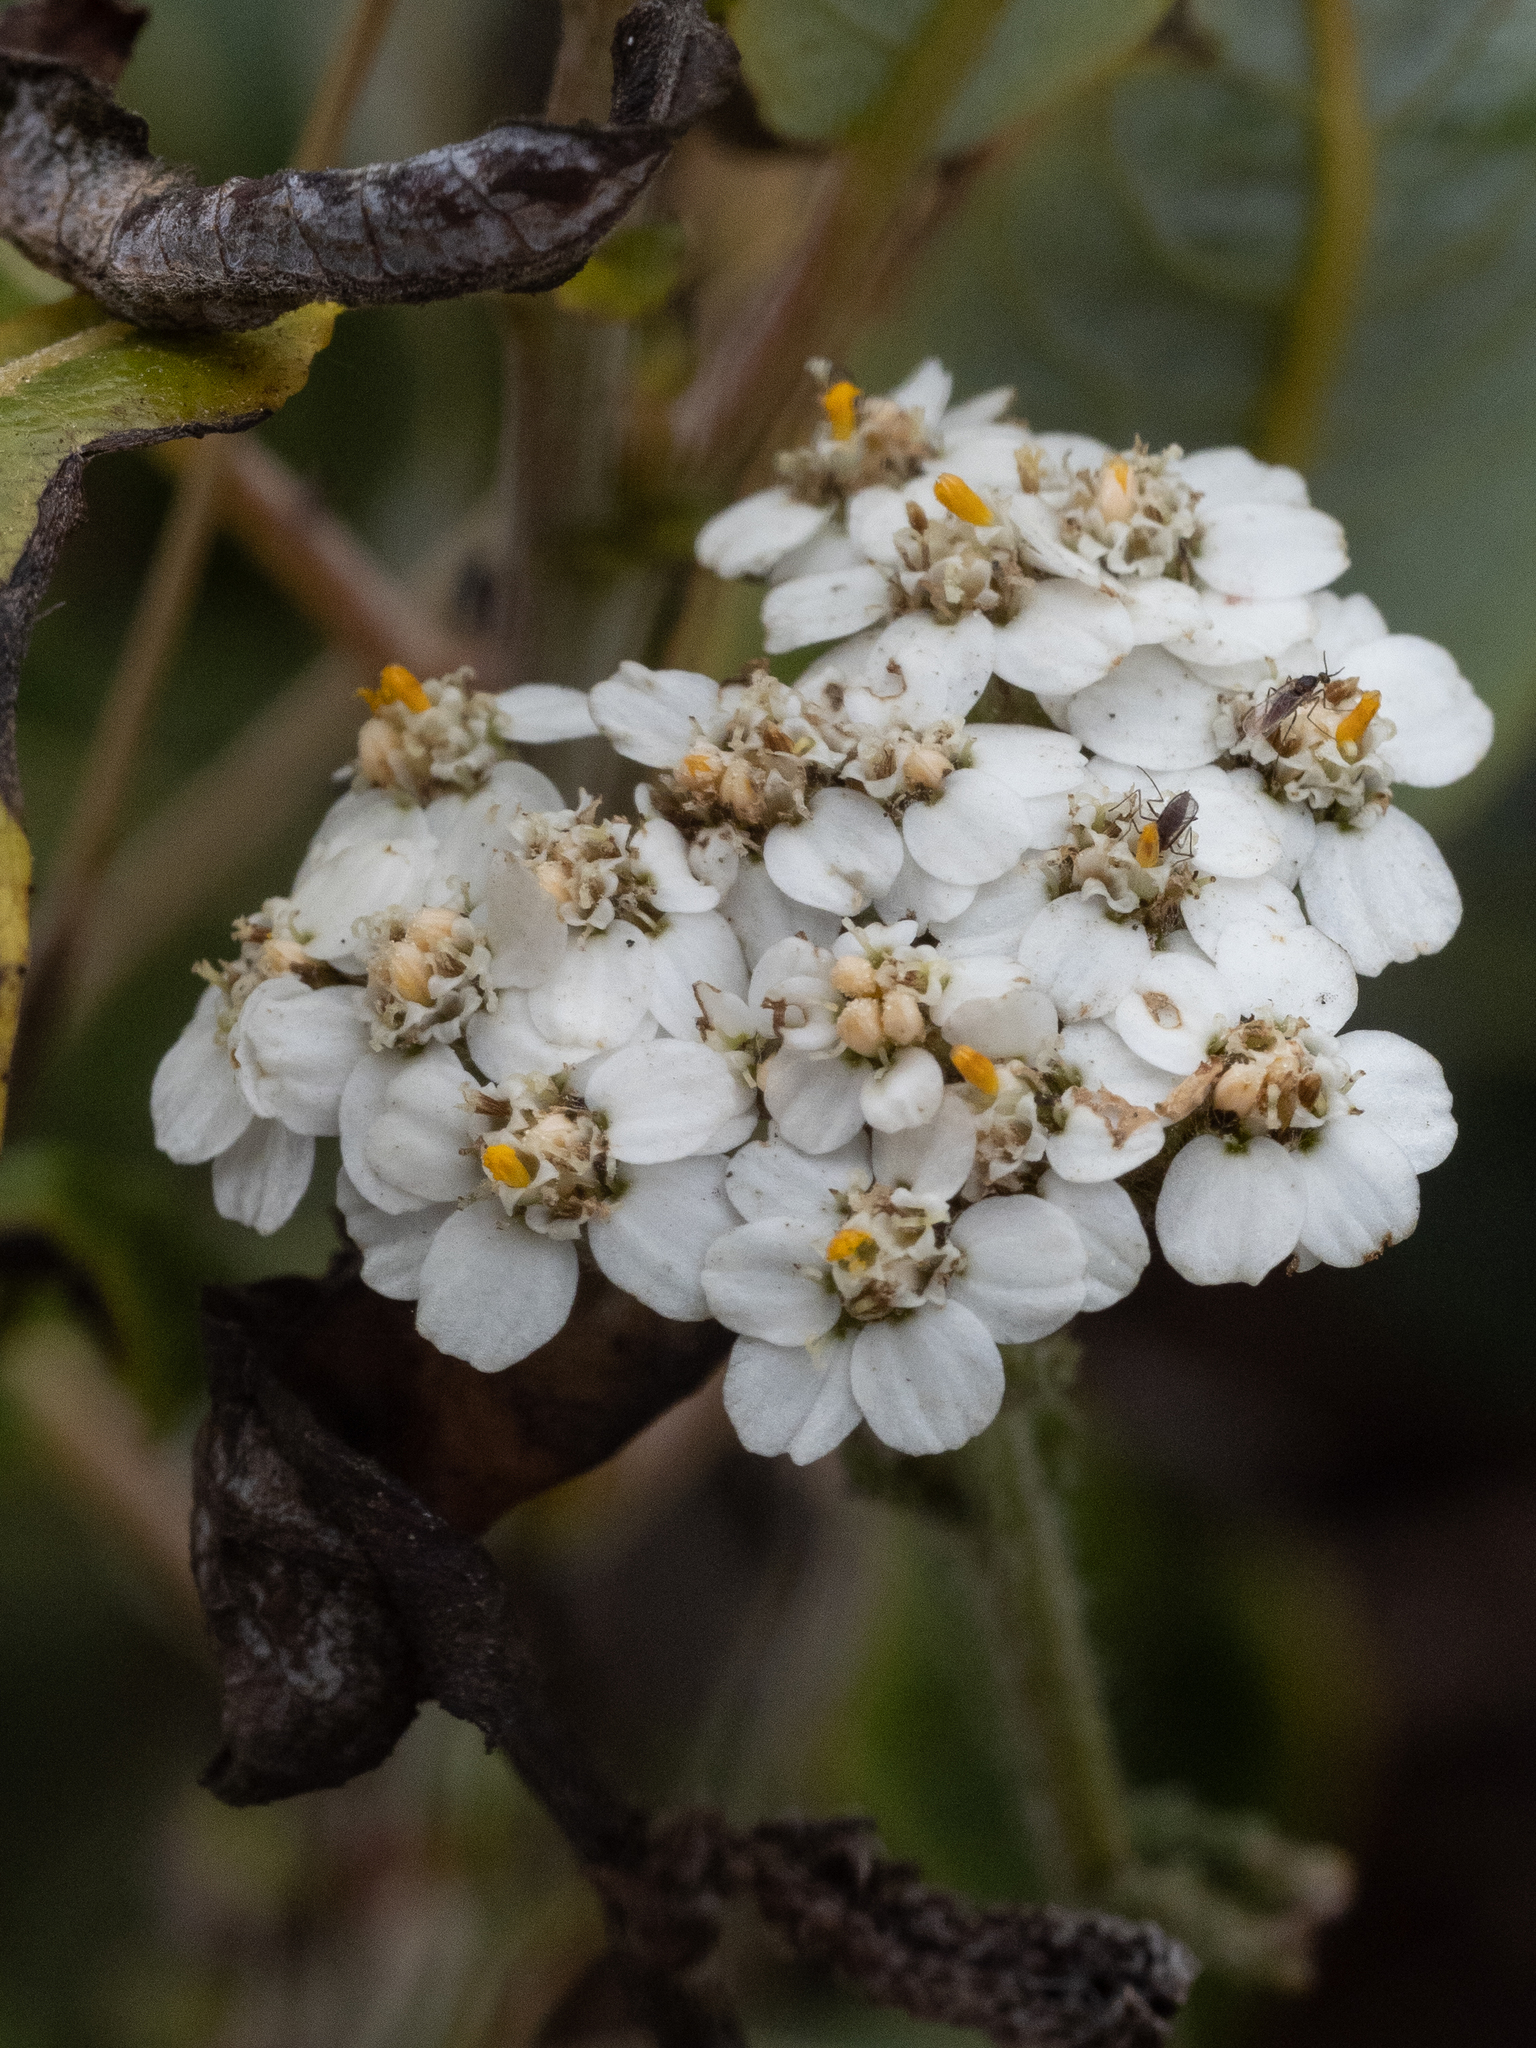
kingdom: Plantae
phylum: Tracheophyta
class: Magnoliopsida
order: Asterales
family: Asteraceae
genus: Achillea
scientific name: Achillea millefolium
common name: Yarrow
